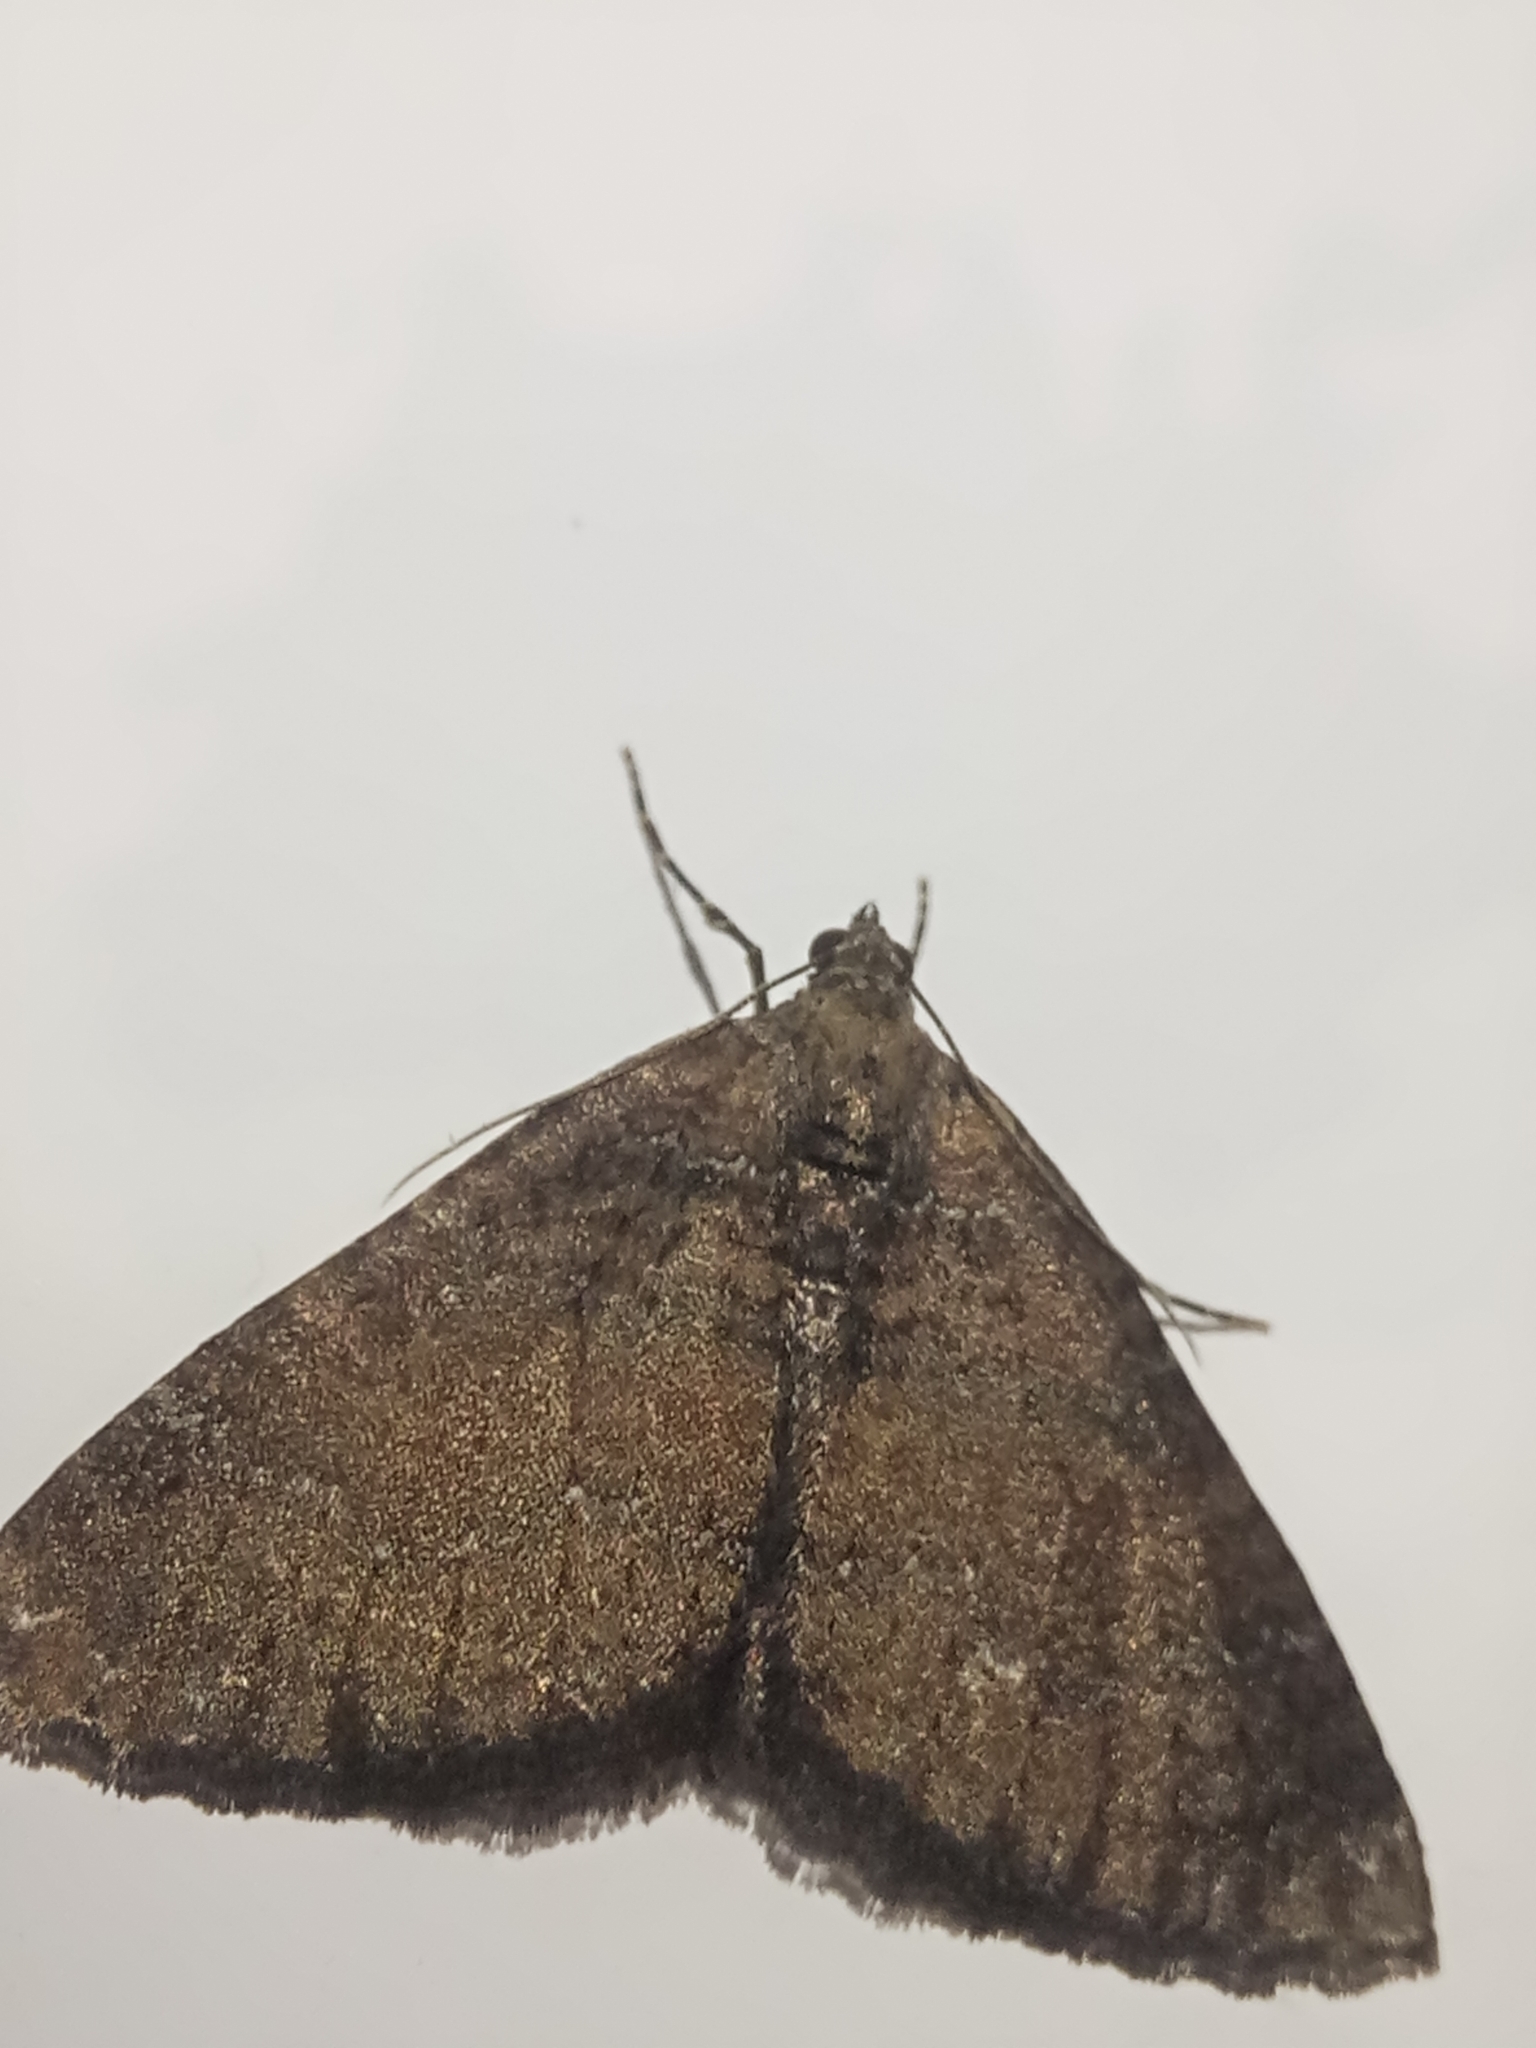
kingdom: Animalia
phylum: Arthropoda
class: Insecta
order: Lepidoptera
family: Geometridae
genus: Nebula
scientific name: Nebula malvata
